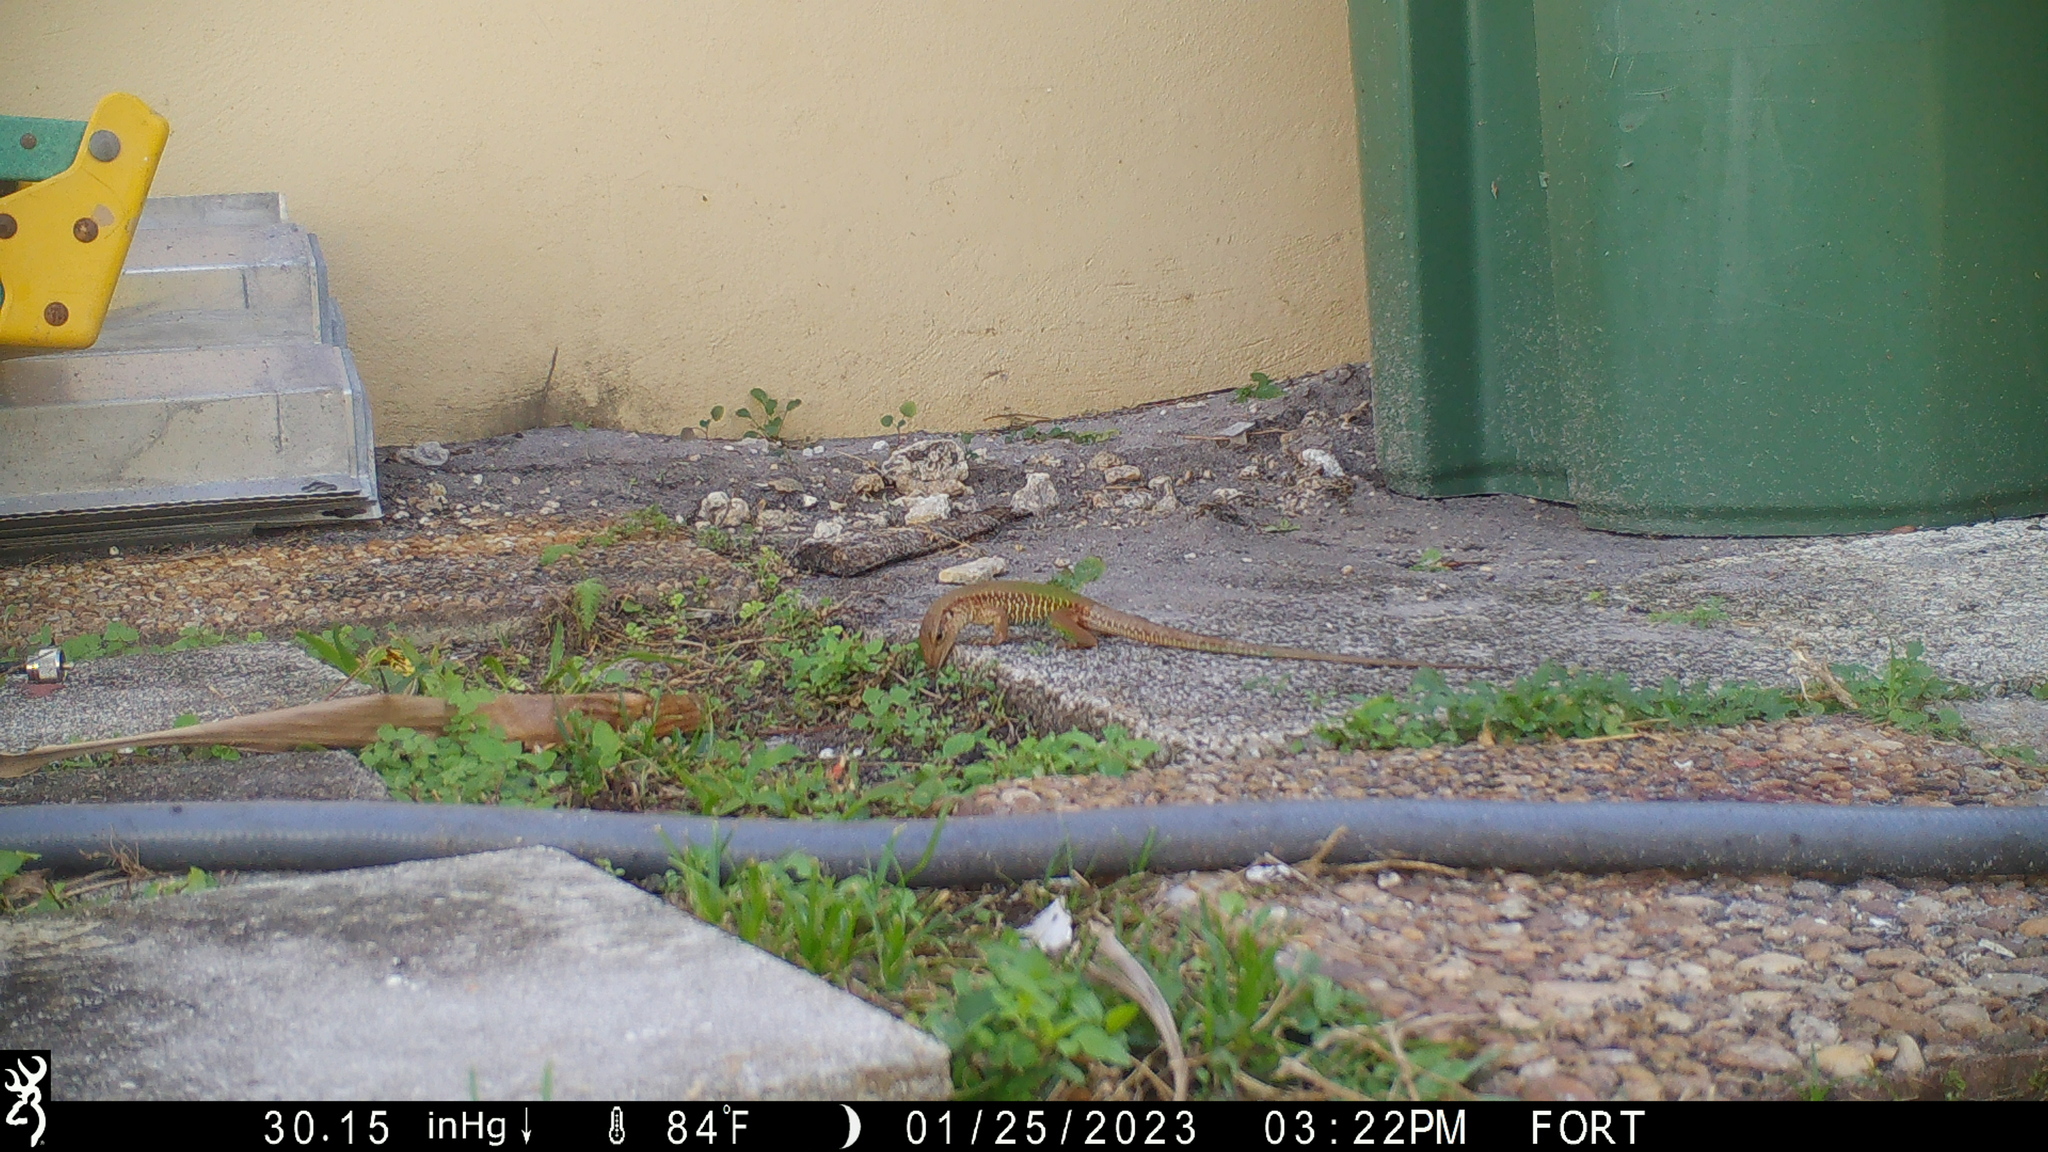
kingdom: Animalia
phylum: Chordata
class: Squamata
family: Teiidae
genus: Ameiva
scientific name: Ameiva ameiva
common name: Giant ameiva
